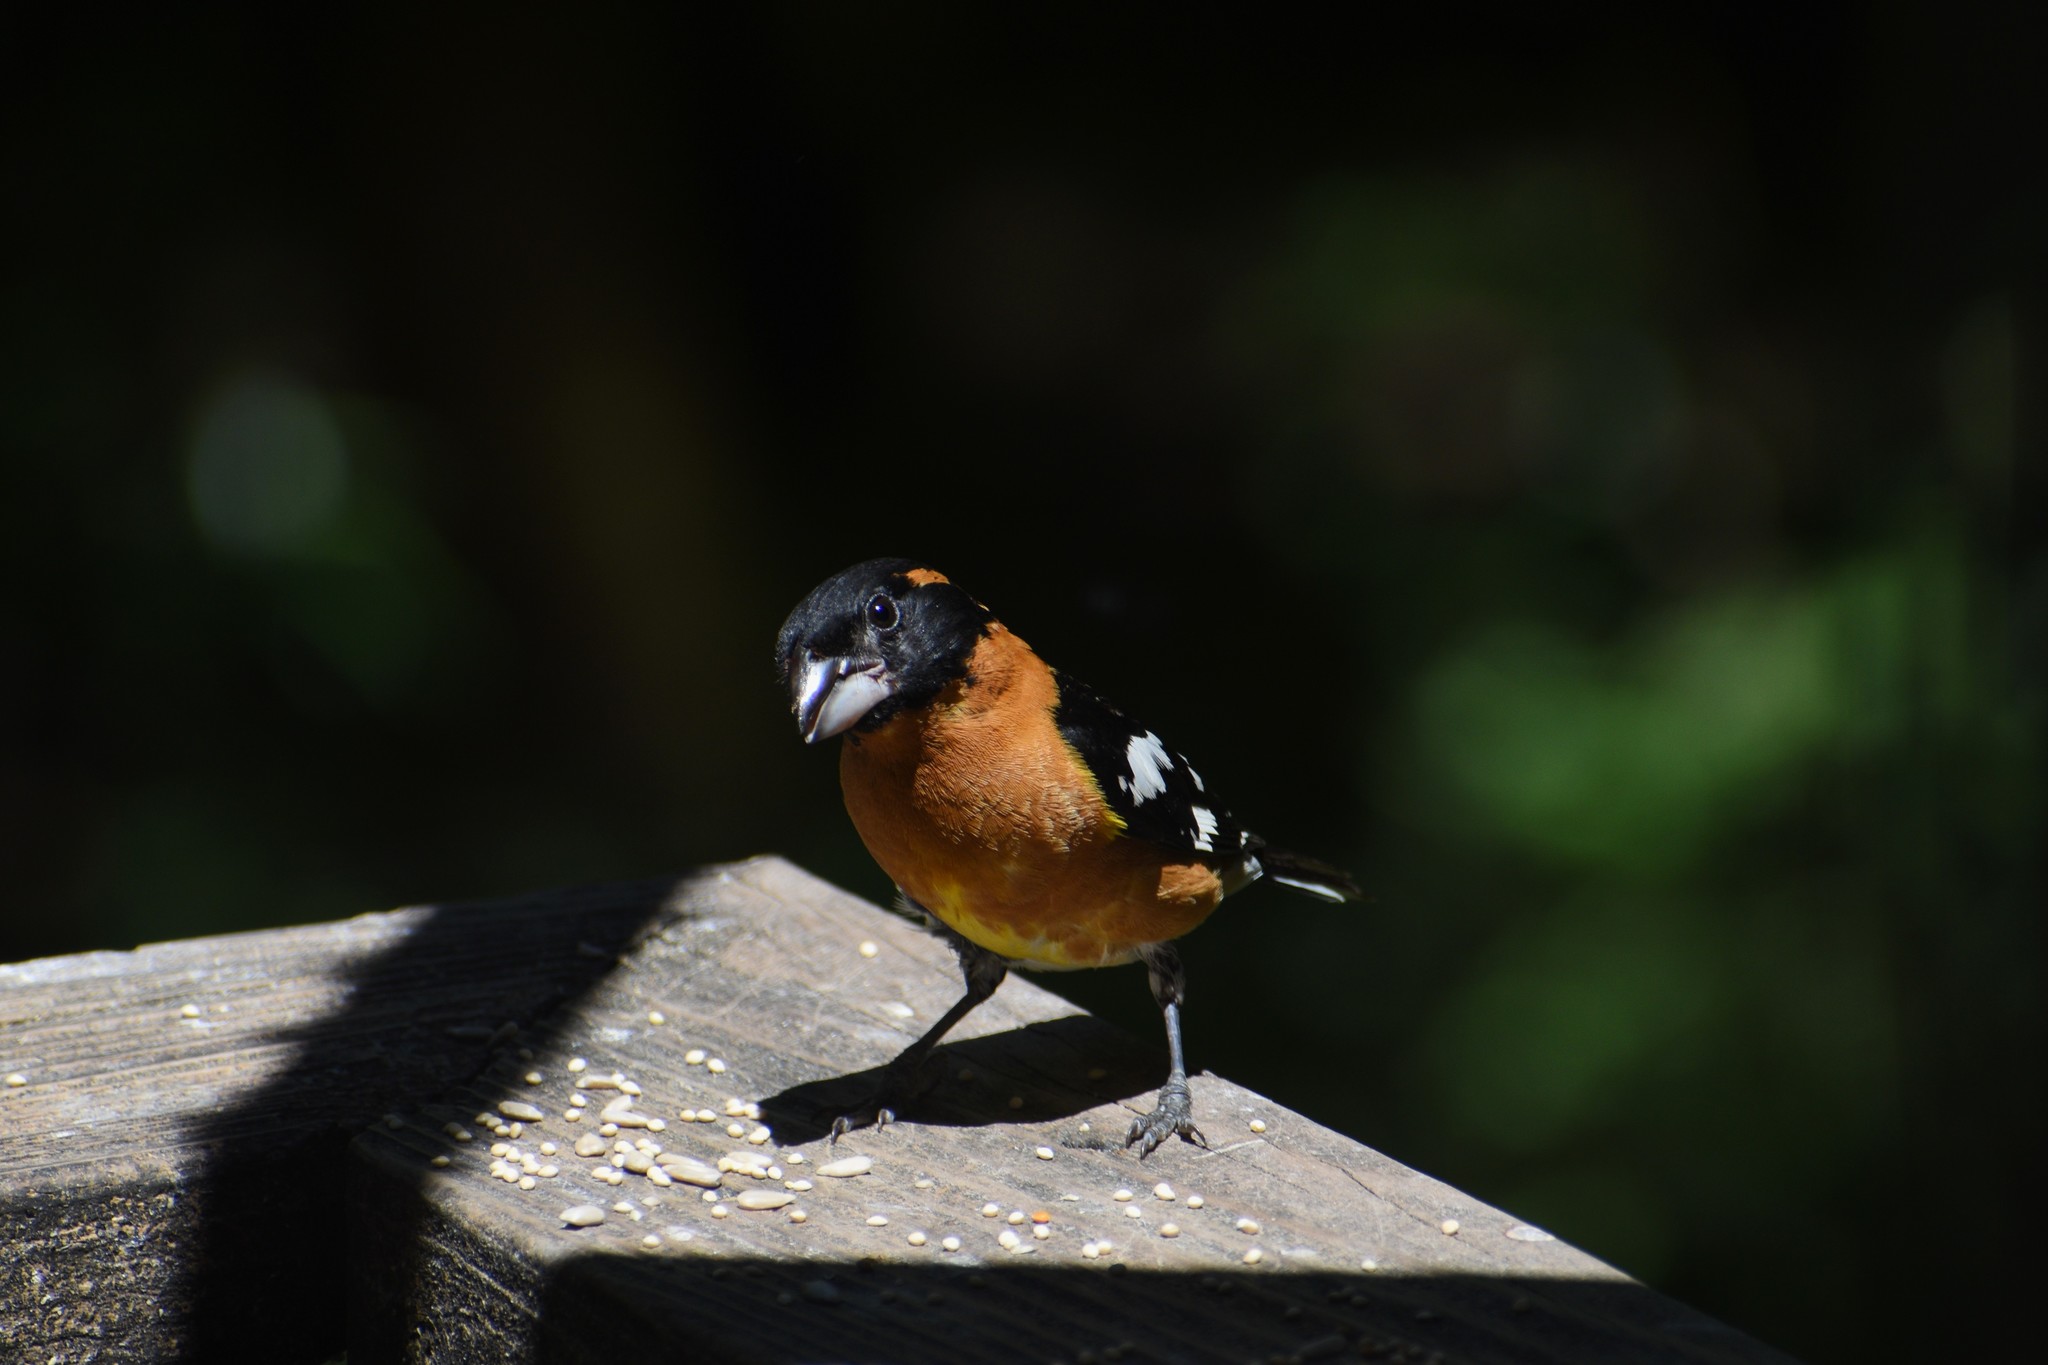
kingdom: Animalia
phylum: Chordata
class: Aves
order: Passeriformes
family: Cardinalidae
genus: Pheucticus
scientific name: Pheucticus melanocephalus
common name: Black-headed grosbeak
